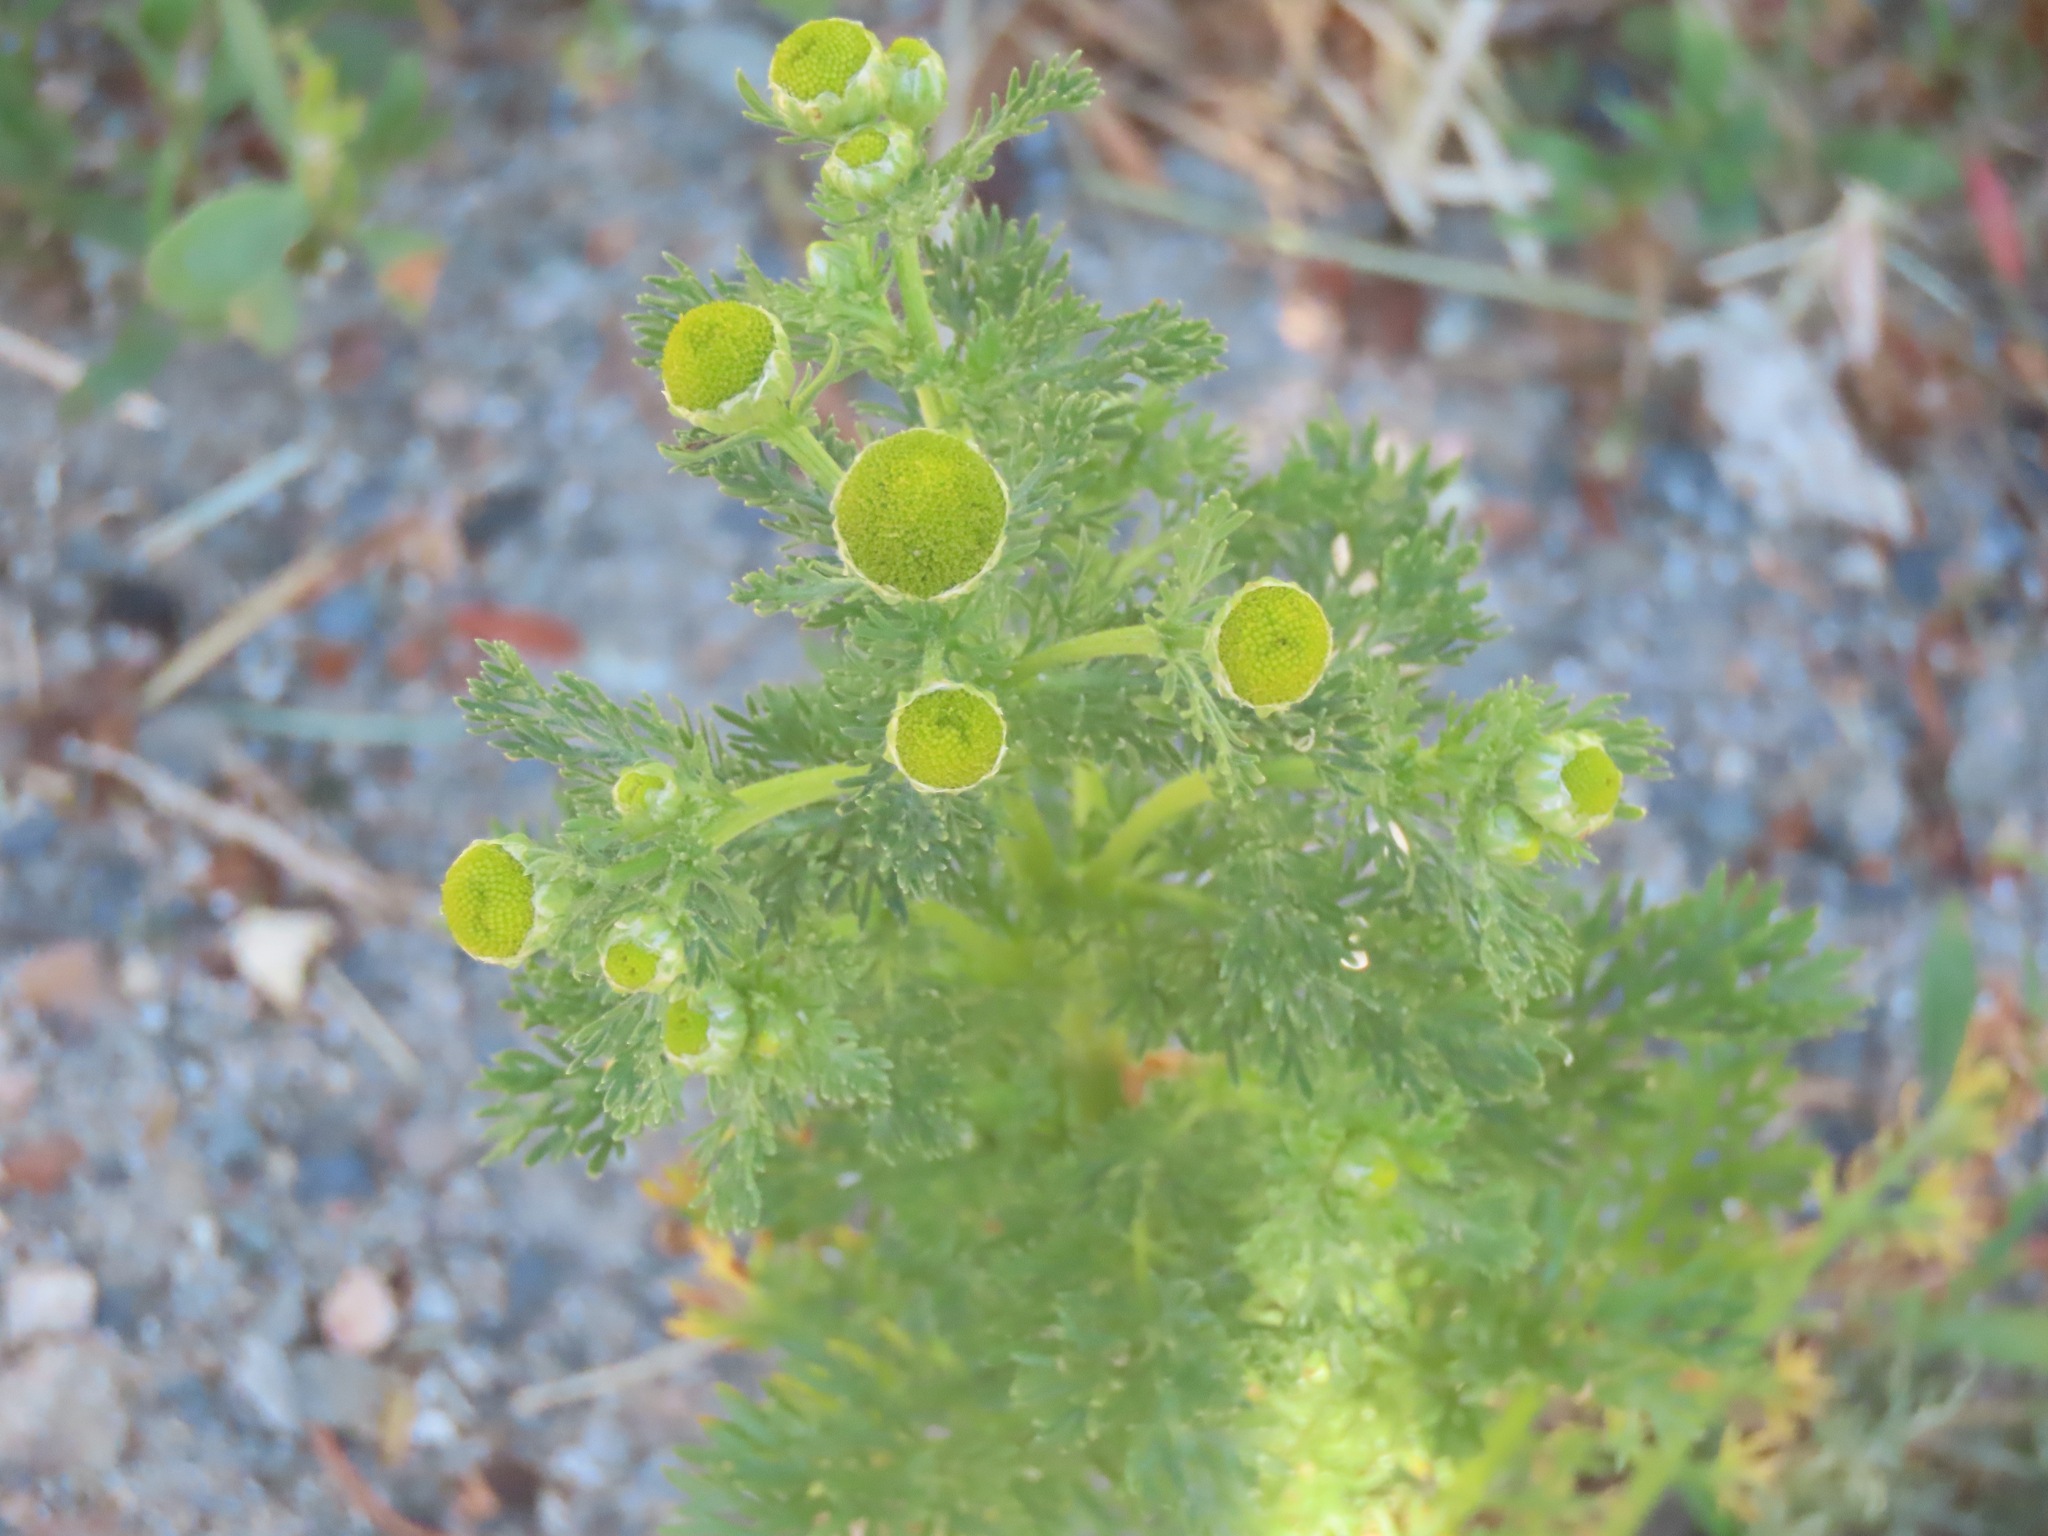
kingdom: Plantae
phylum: Tracheophyta
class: Magnoliopsida
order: Asterales
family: Asteraceae
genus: Matricaria
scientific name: Matricaria discoidea
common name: Disc mayweed
